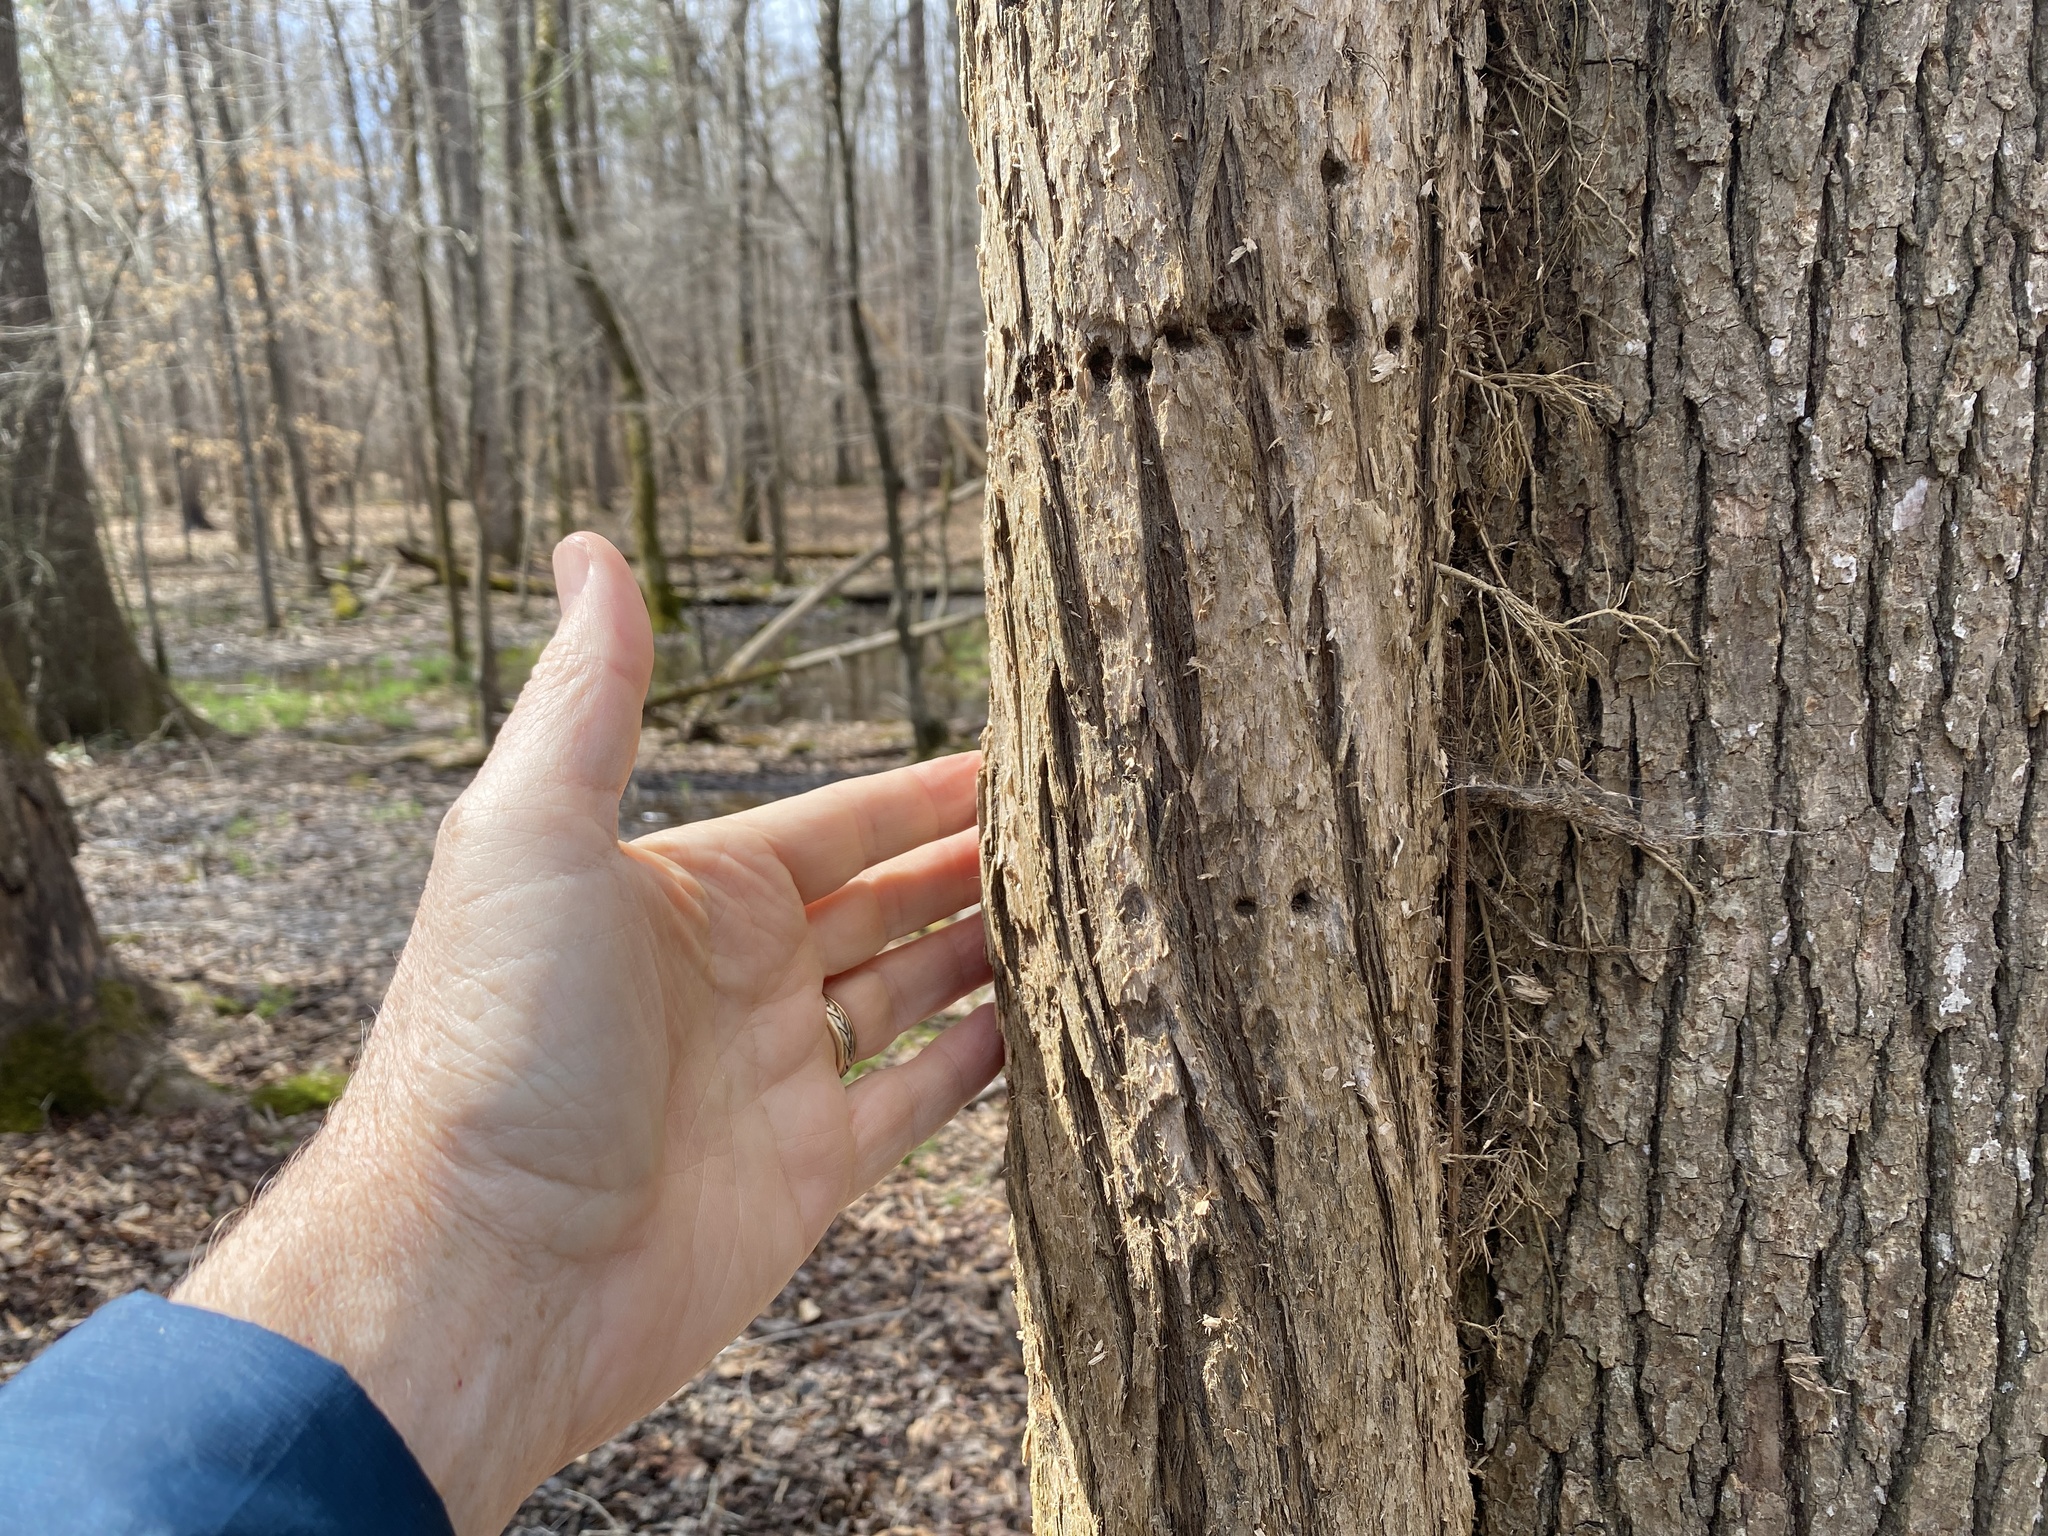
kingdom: Plantae
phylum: Tracheophyta
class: Magnoliopsida
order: Lamiales
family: Bignoniaceae
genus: Campsis
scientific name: Campsis radicans
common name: Trumpet-creeper
